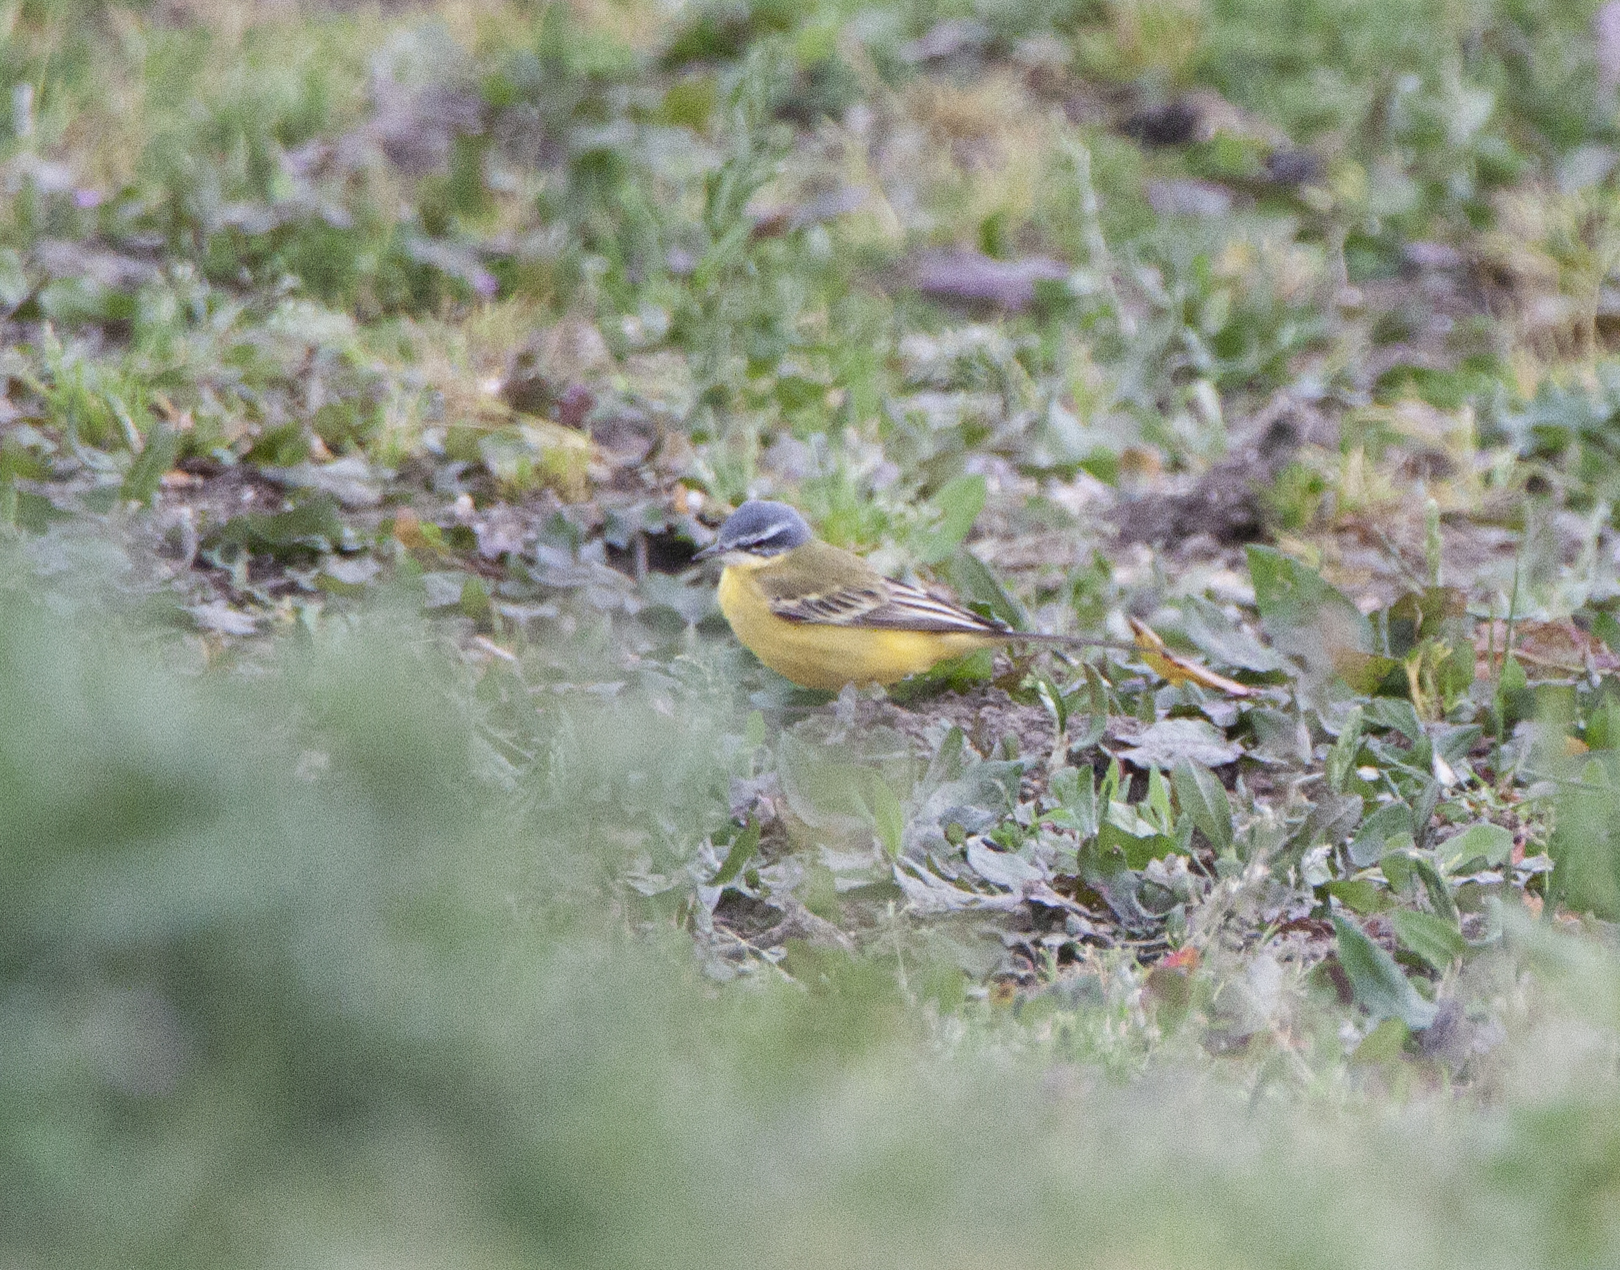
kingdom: Animalia
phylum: Chordata
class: Aves
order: Passeriformes
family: Motacillidae
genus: Motacilla
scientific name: Motacilla flava
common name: Western yellow wagtail
